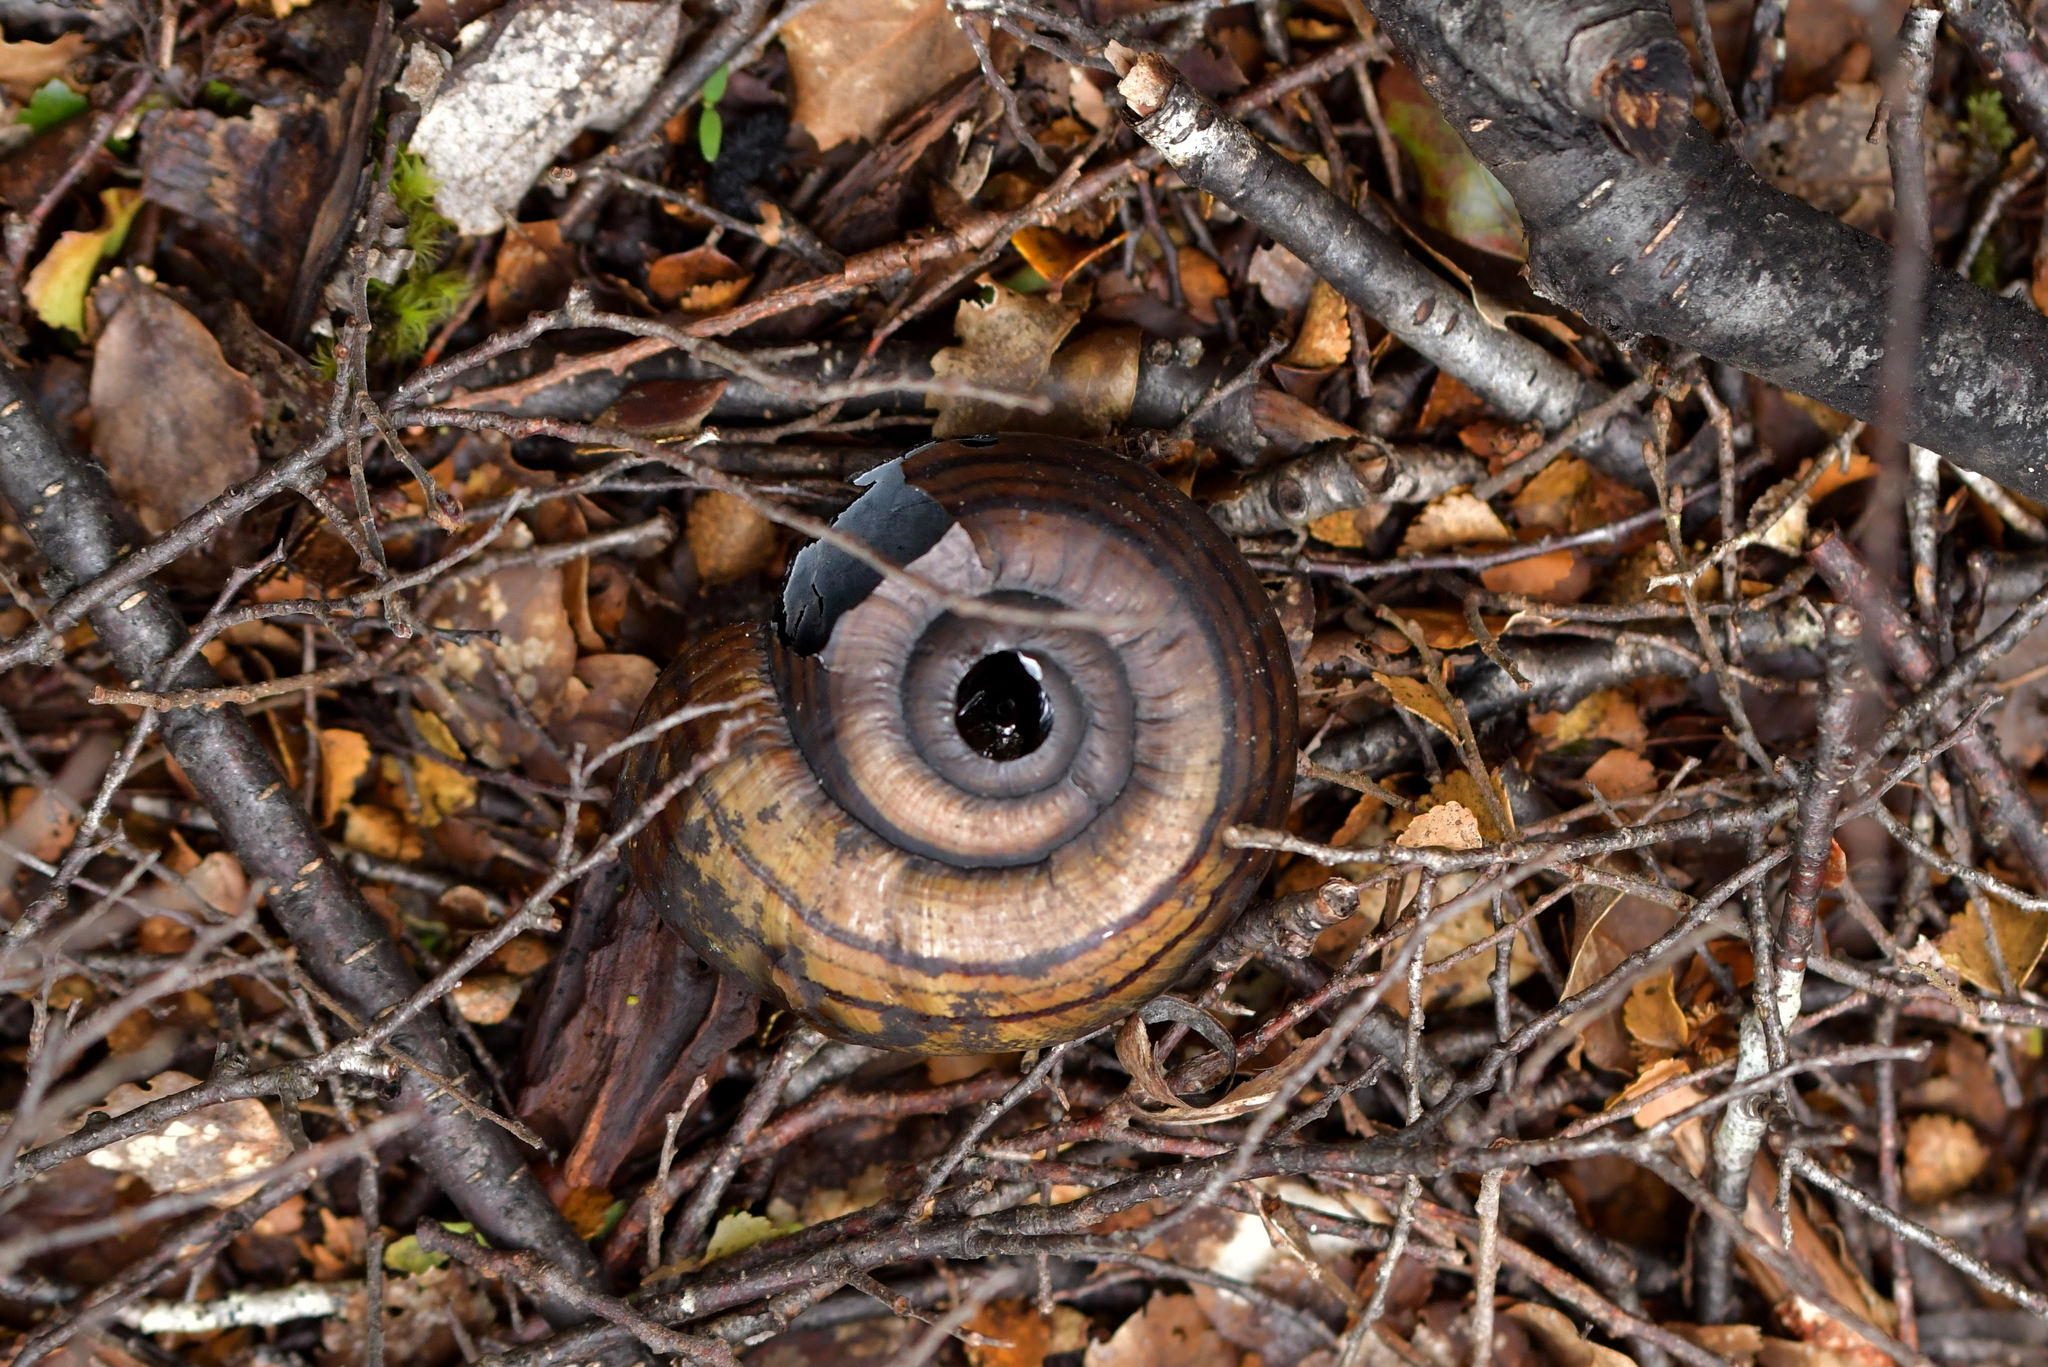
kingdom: Animalia
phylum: Mollusca
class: Gastropoda
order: Stylommatophora
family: Rhytididae
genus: Powelliphanta
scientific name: Powelliphanta hochstetteri
